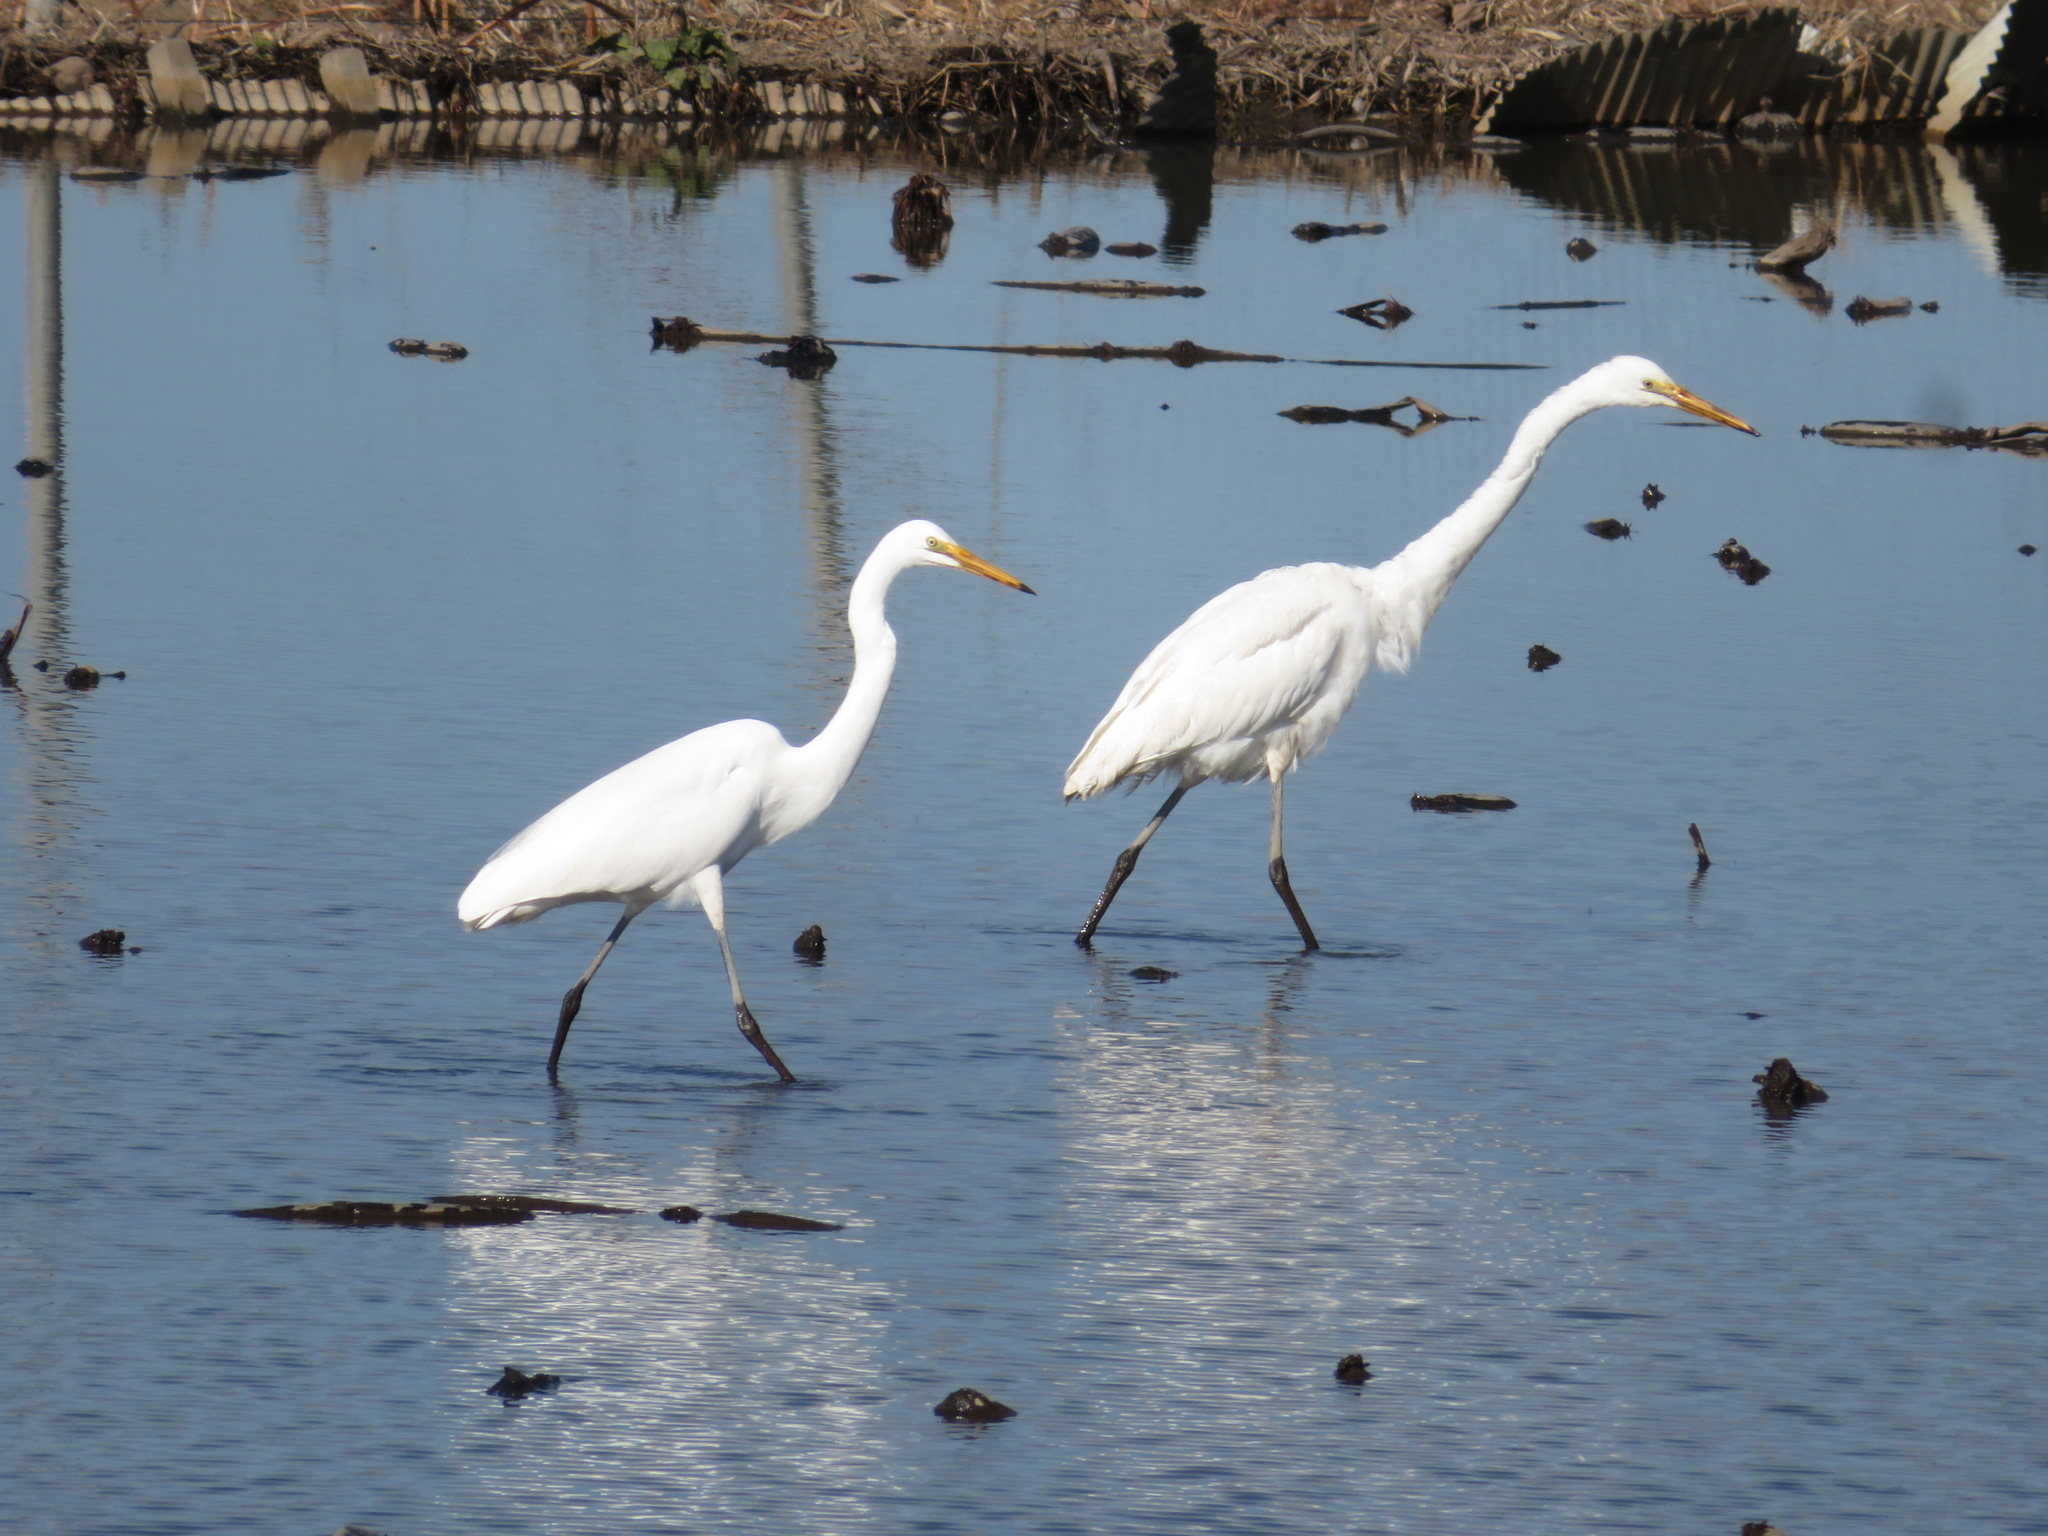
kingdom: Animalia
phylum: Chordata
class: Aves
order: Pelecaniformes
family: Ardeidae
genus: Egretta
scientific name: Egretta intermedia
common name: Intermediate egret
